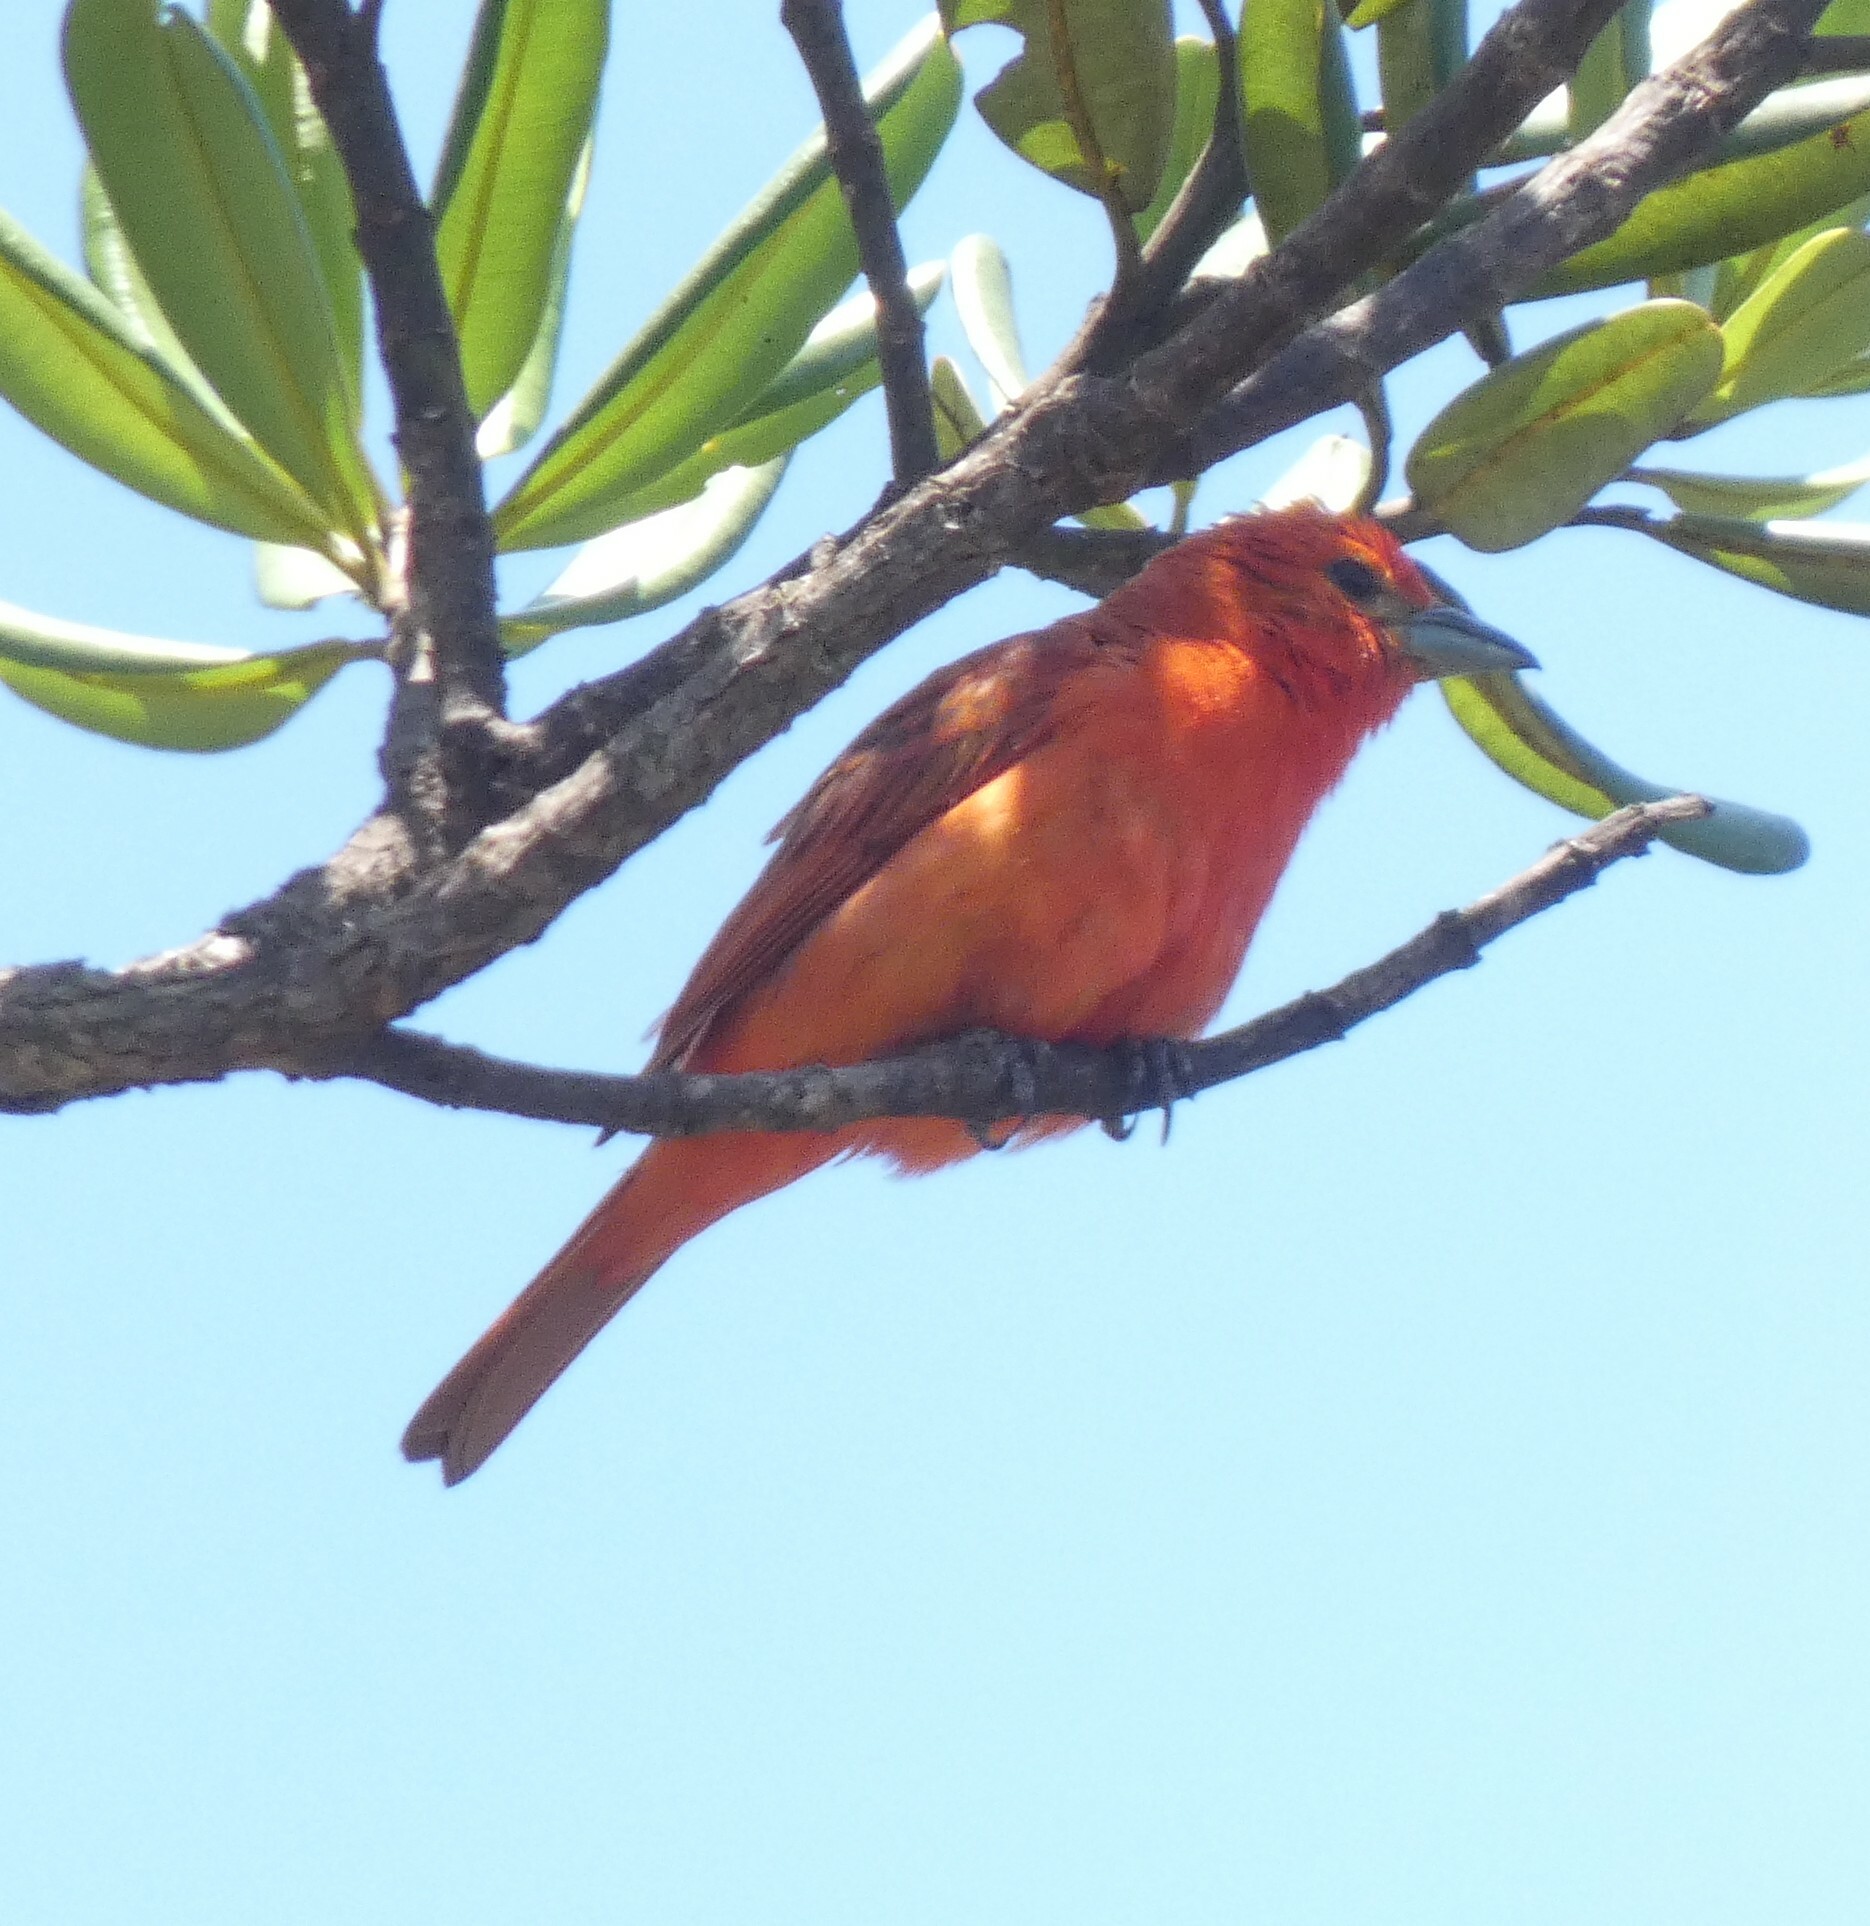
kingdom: Animalia
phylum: Chordata
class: Aves
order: Passeriformes
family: Cardinalidae
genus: Piranga
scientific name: Piranga flava
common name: Red tanager
